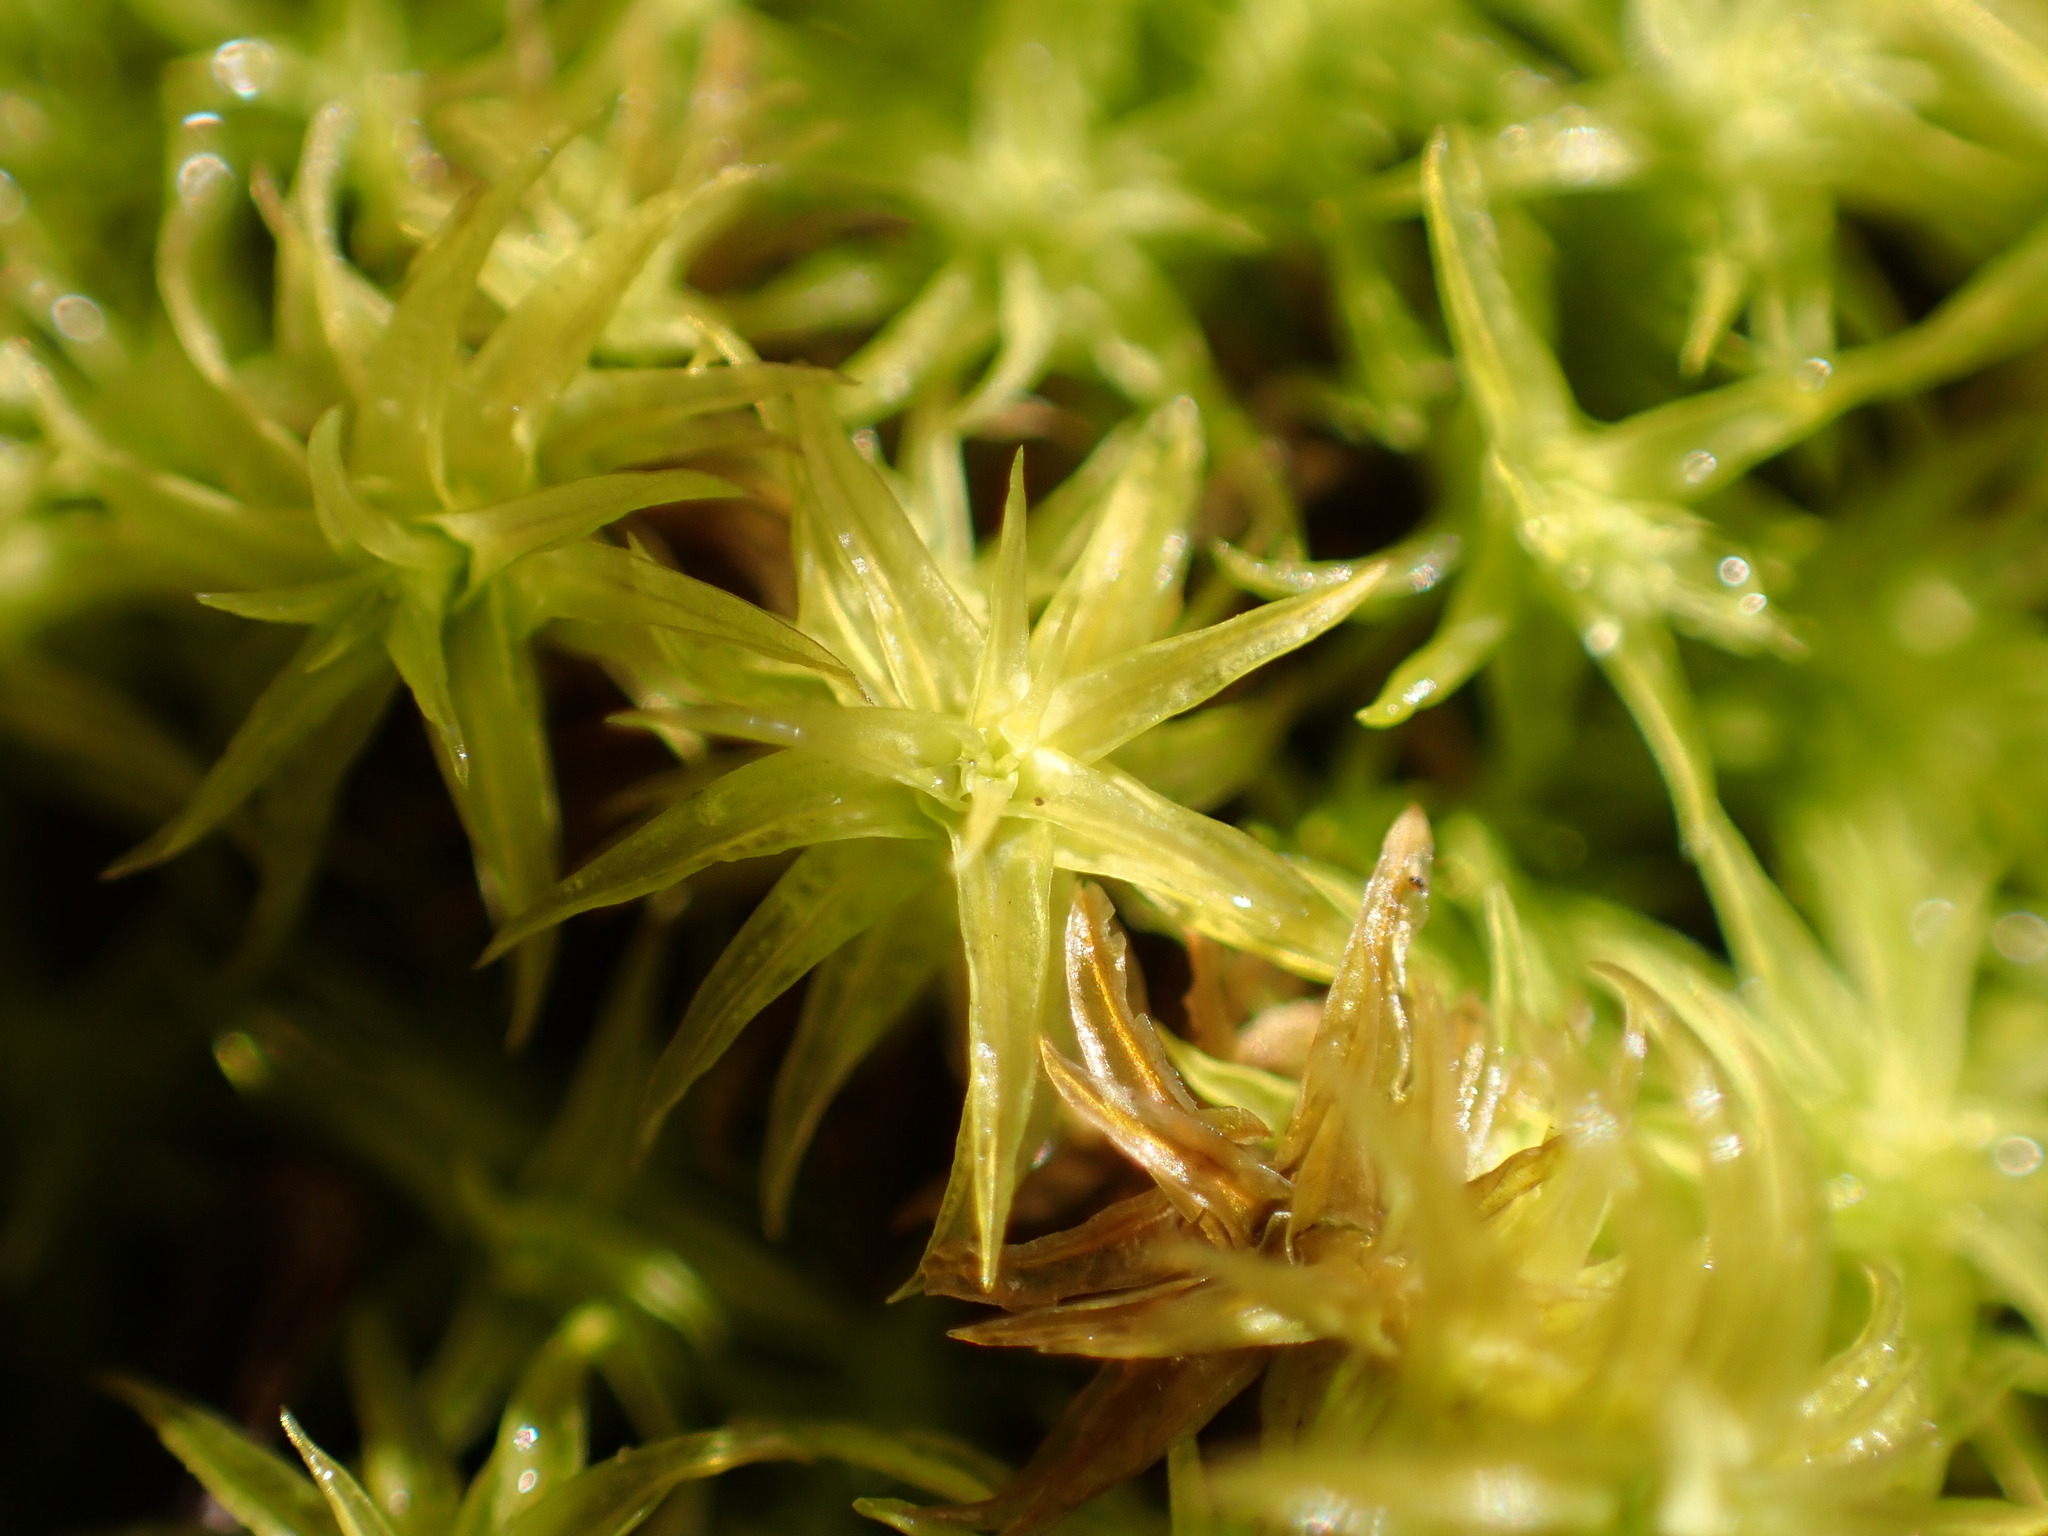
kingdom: Plantae
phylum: Bryophyta
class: Bryopsida
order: Pottiales
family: Pottiaceae
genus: Pleurochaete
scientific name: Pleurochaete squarrosa
